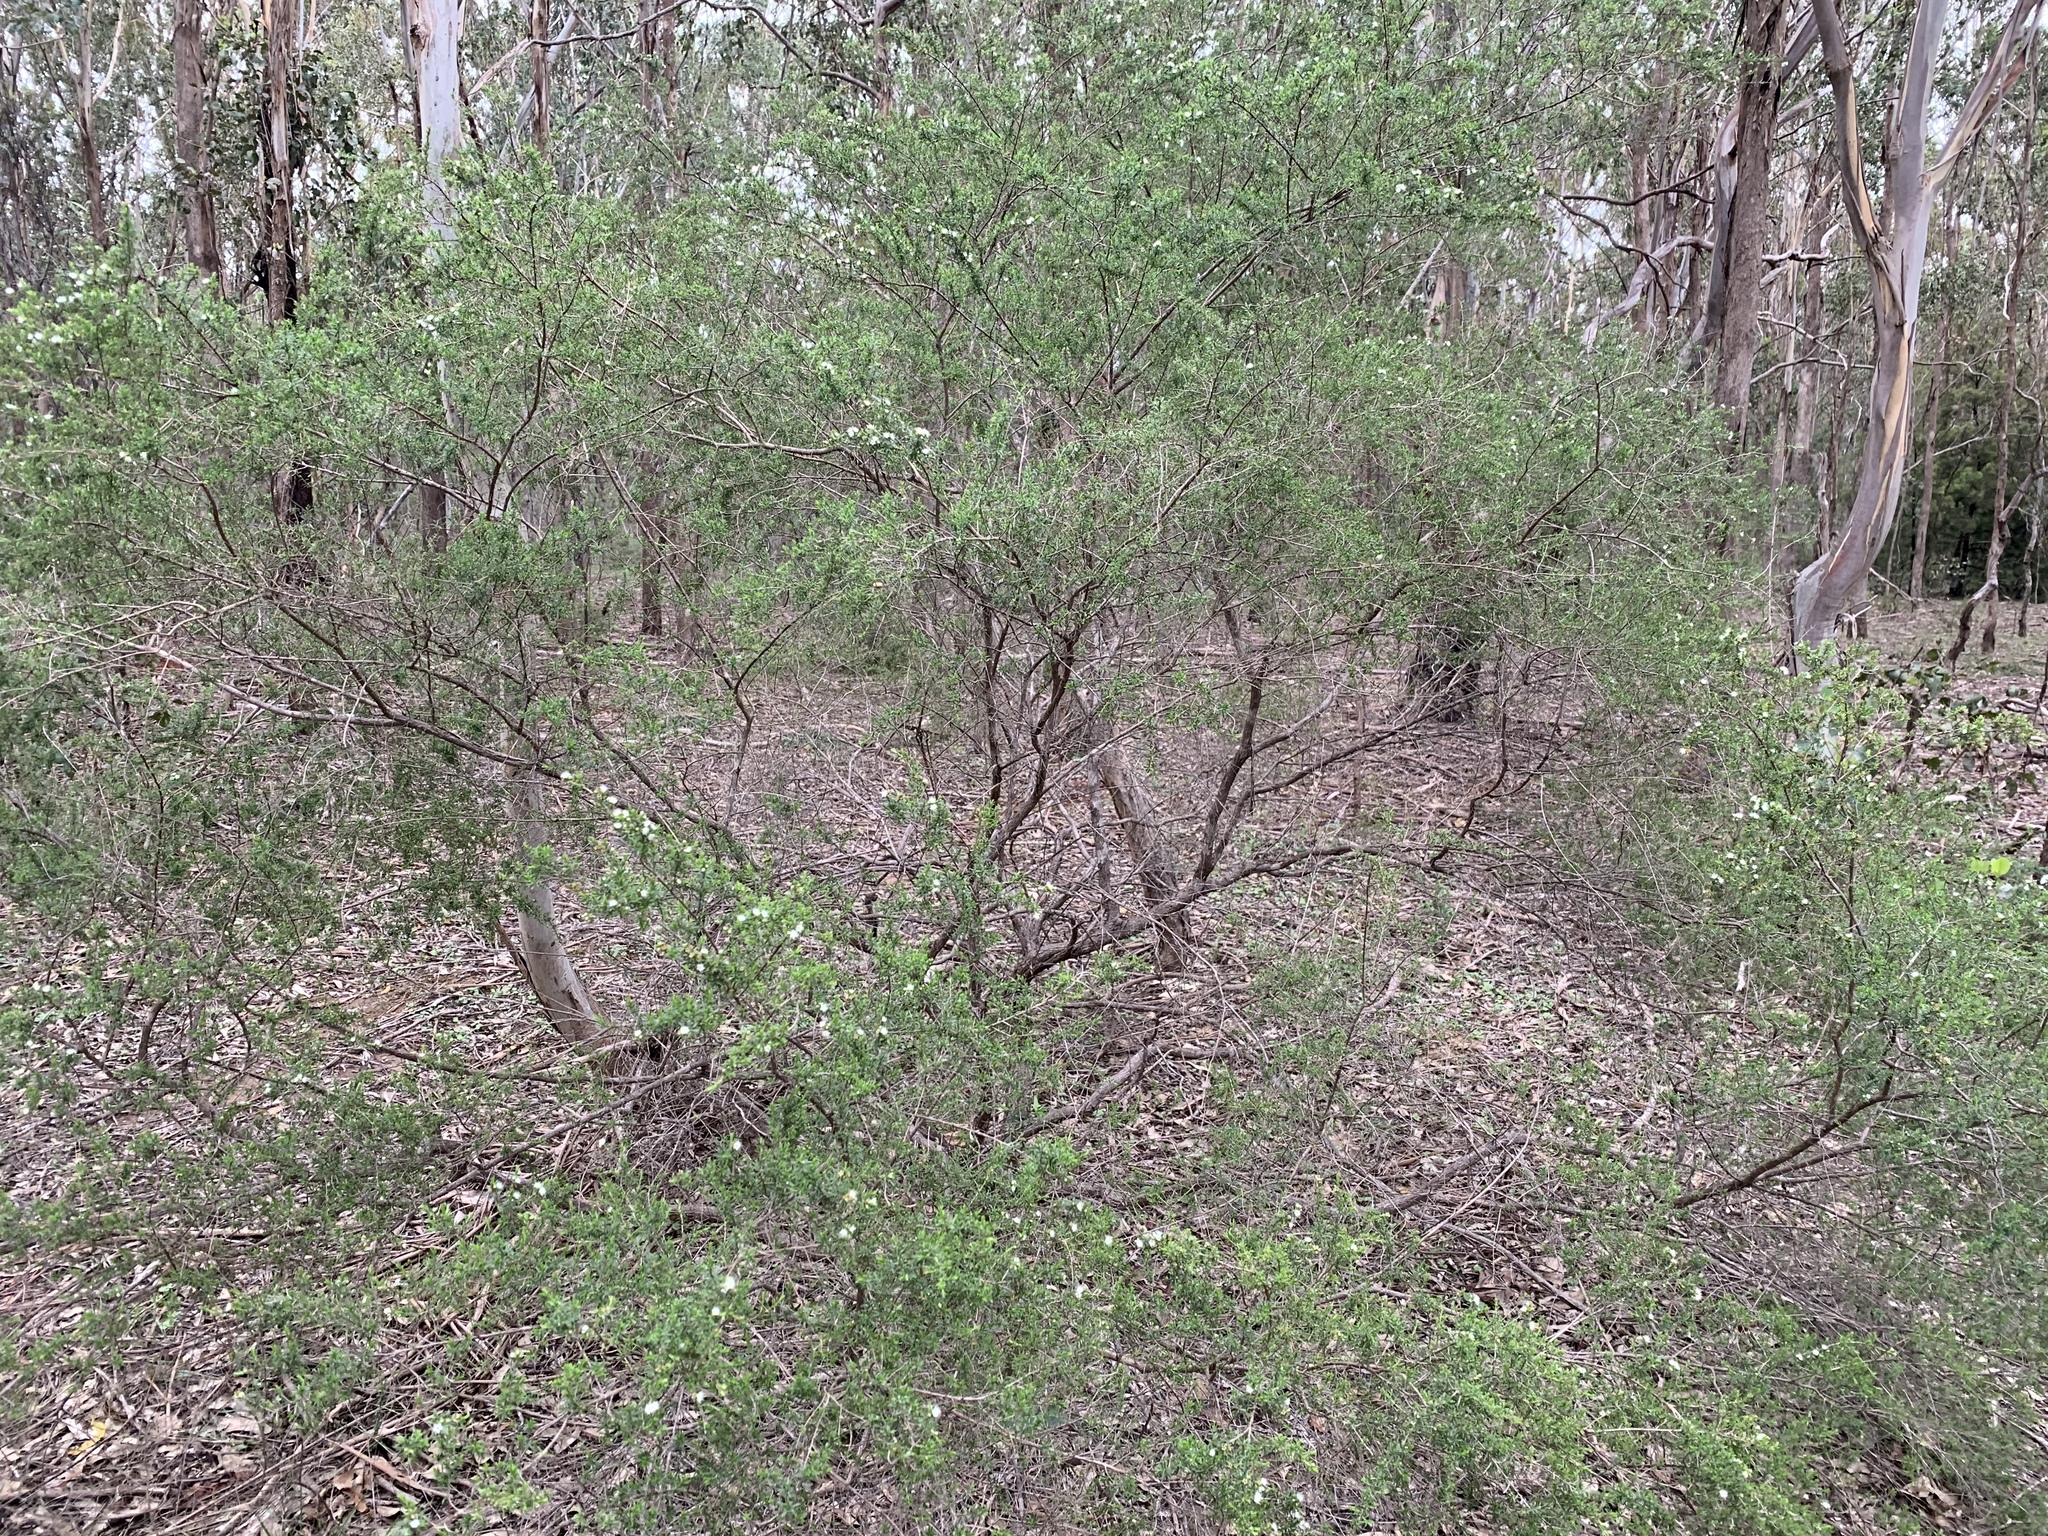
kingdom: Plantae
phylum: Tracheophyta
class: Magnoliopsida
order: Myrtales
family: Myrtaceae
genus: Kunzea
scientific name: Kunzea ambigua
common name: Tickbush
